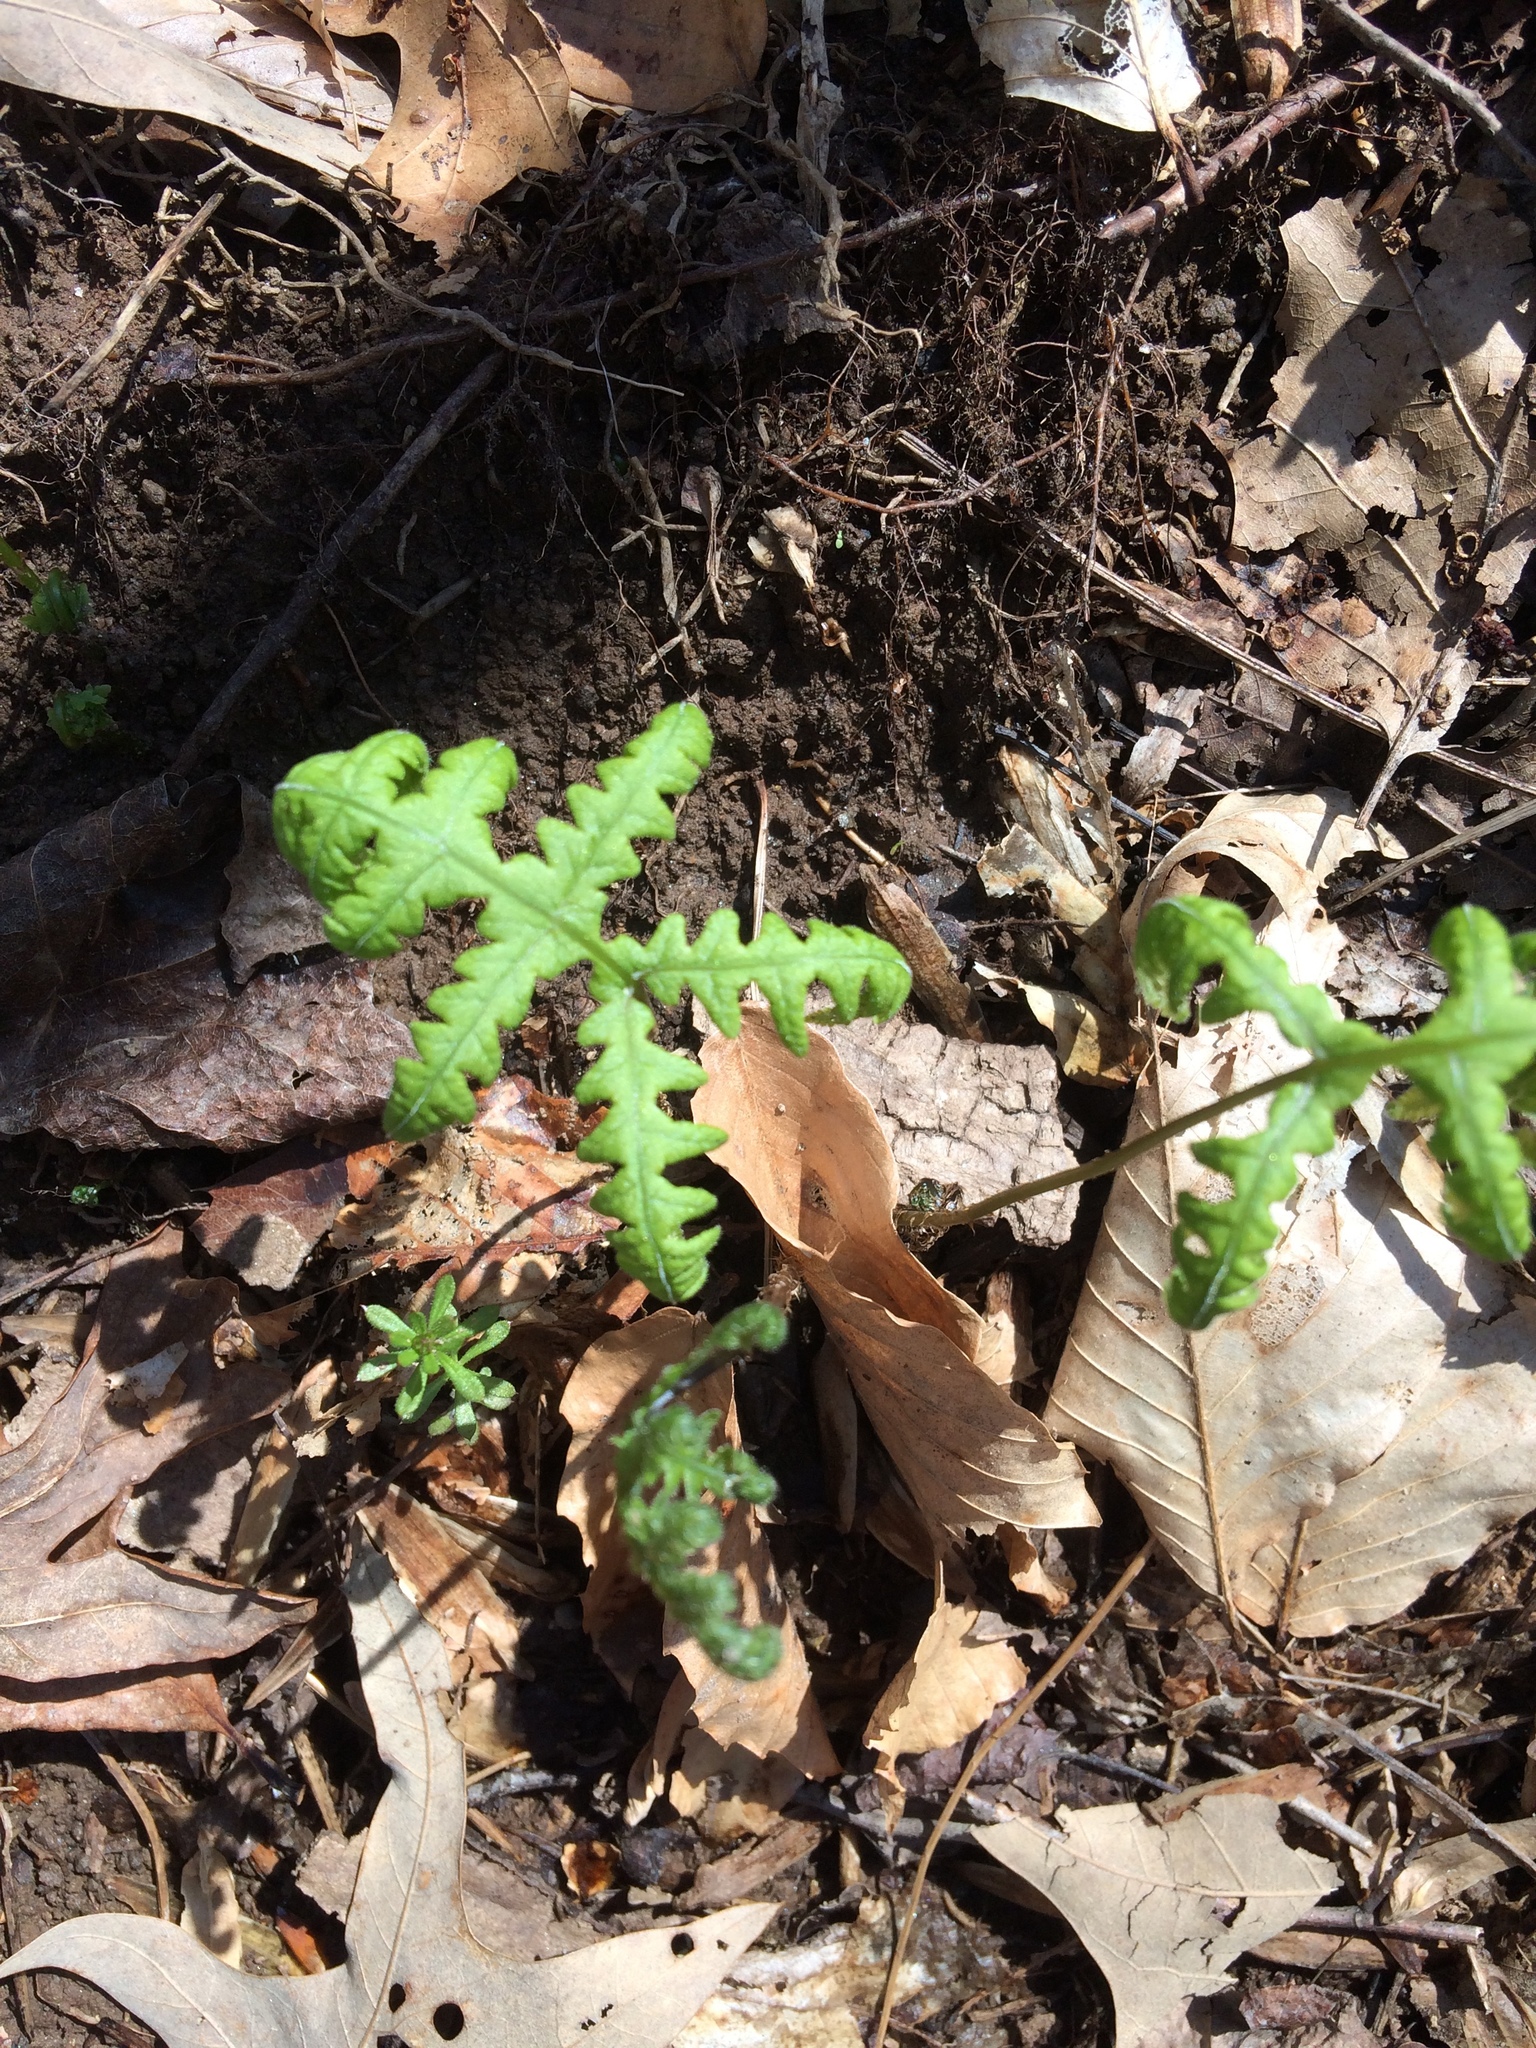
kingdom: Plantae
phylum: Tracheophyta
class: Polypodiopsida
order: Polypodiales
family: Onocleaceae
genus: Onoclea
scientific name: Onoclea sensibilis
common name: Sensitive fern
